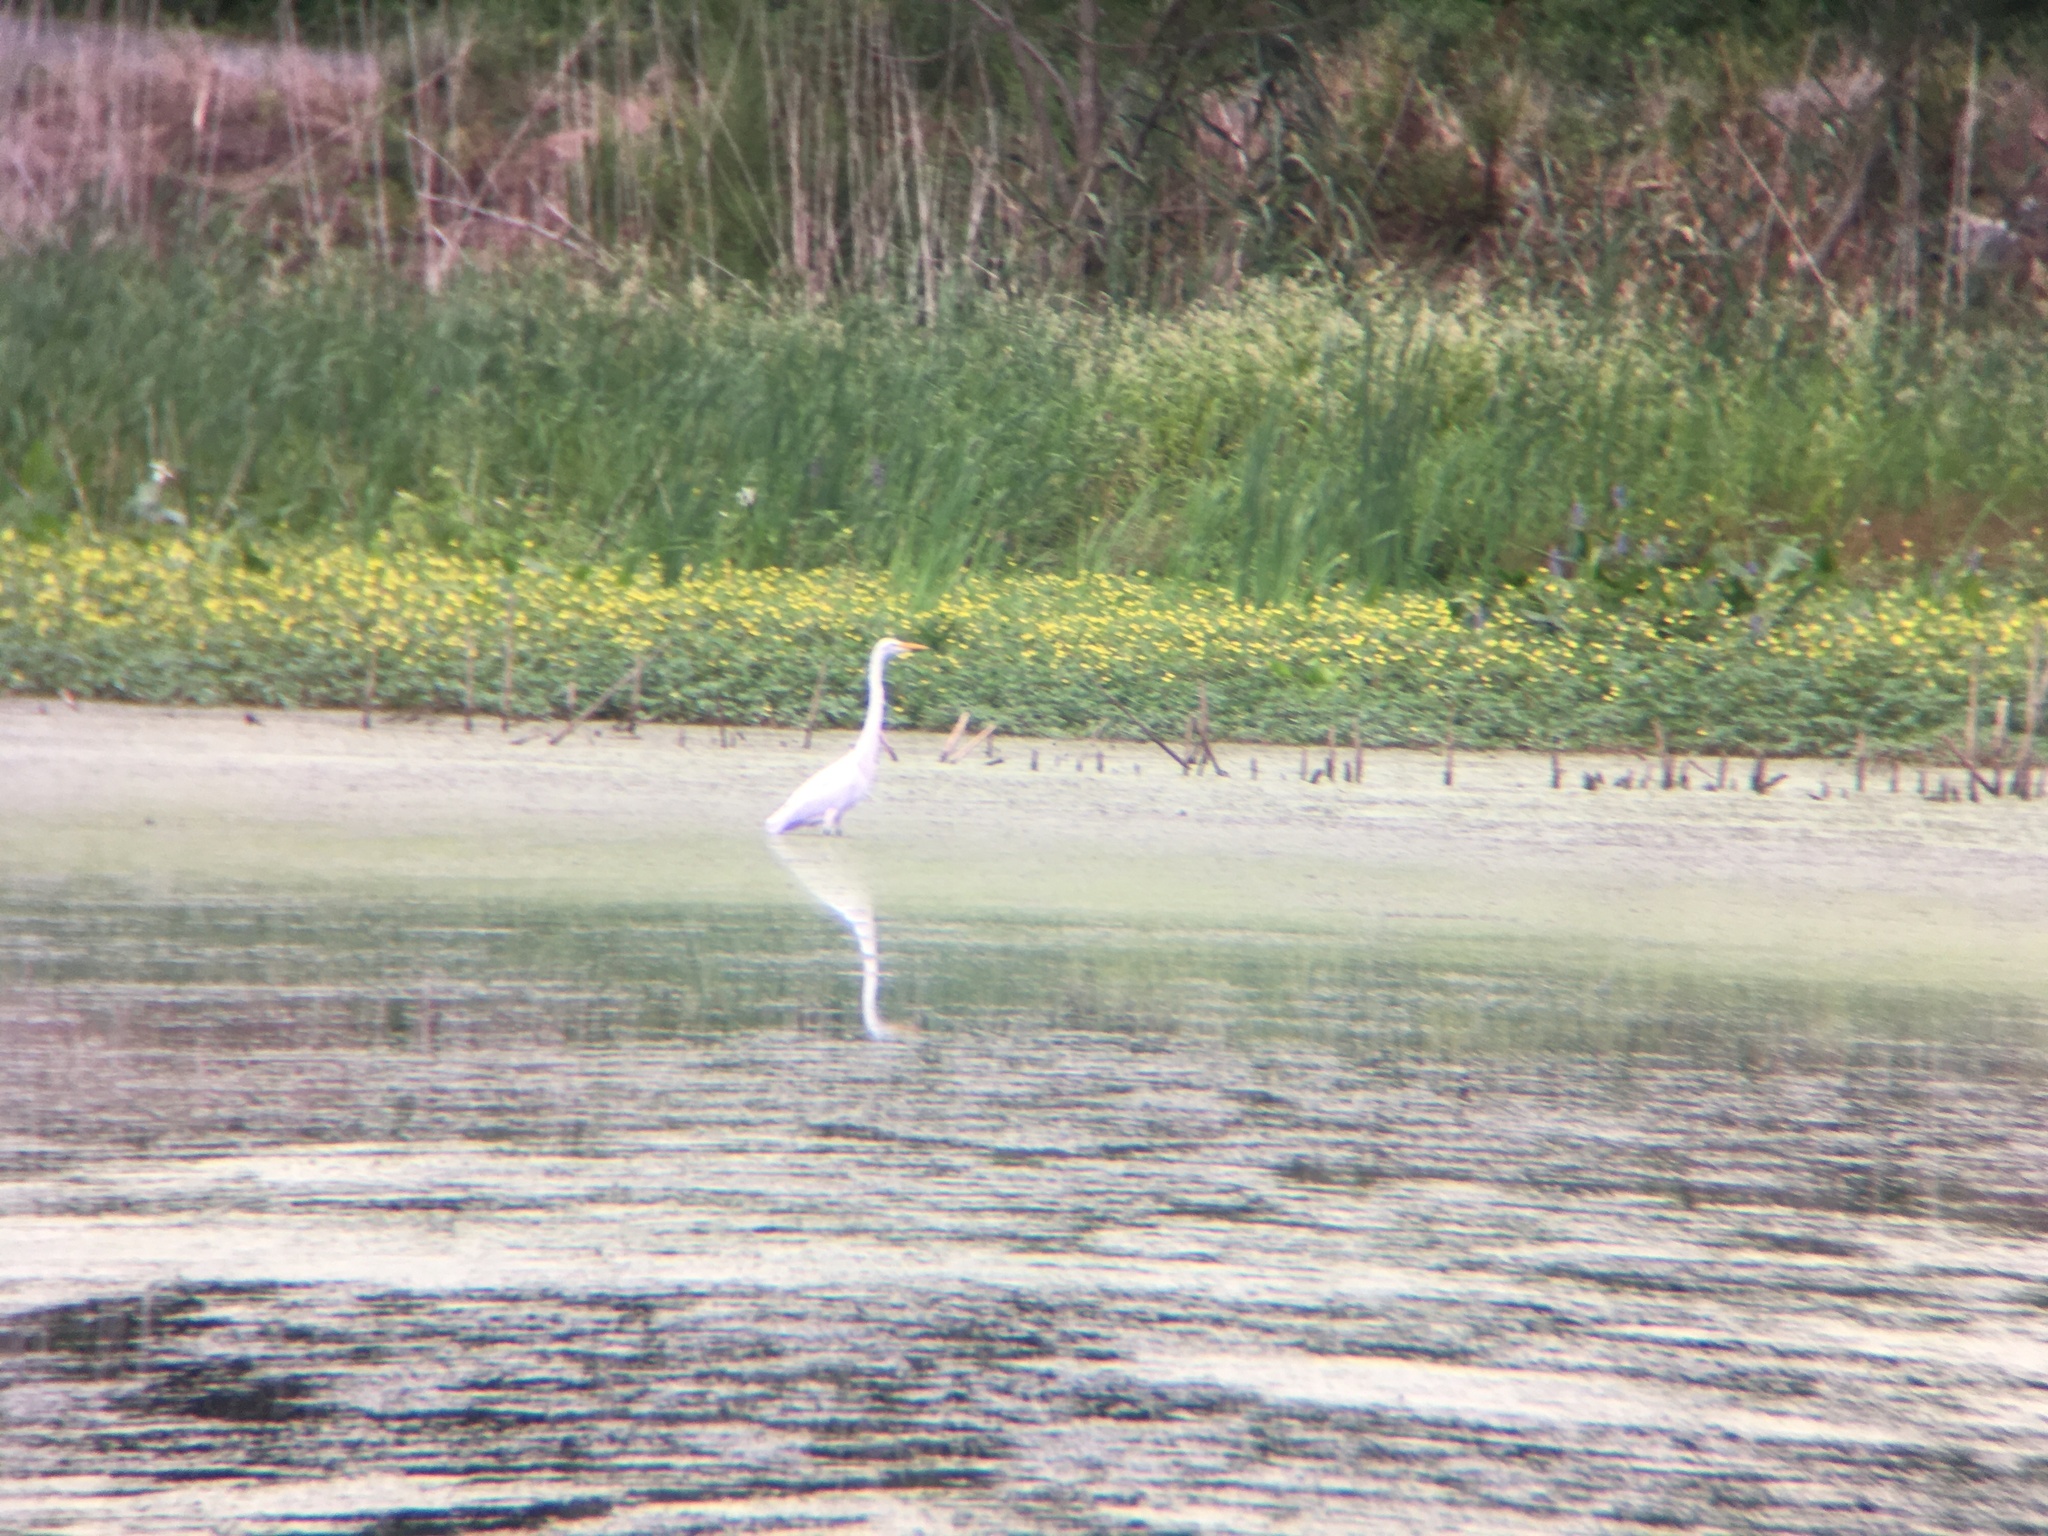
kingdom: Animalia
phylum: Chordata
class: Aves
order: Pelecaniformes
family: Ardeidae
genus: Ardea
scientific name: Ardea alba
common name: Great egret
